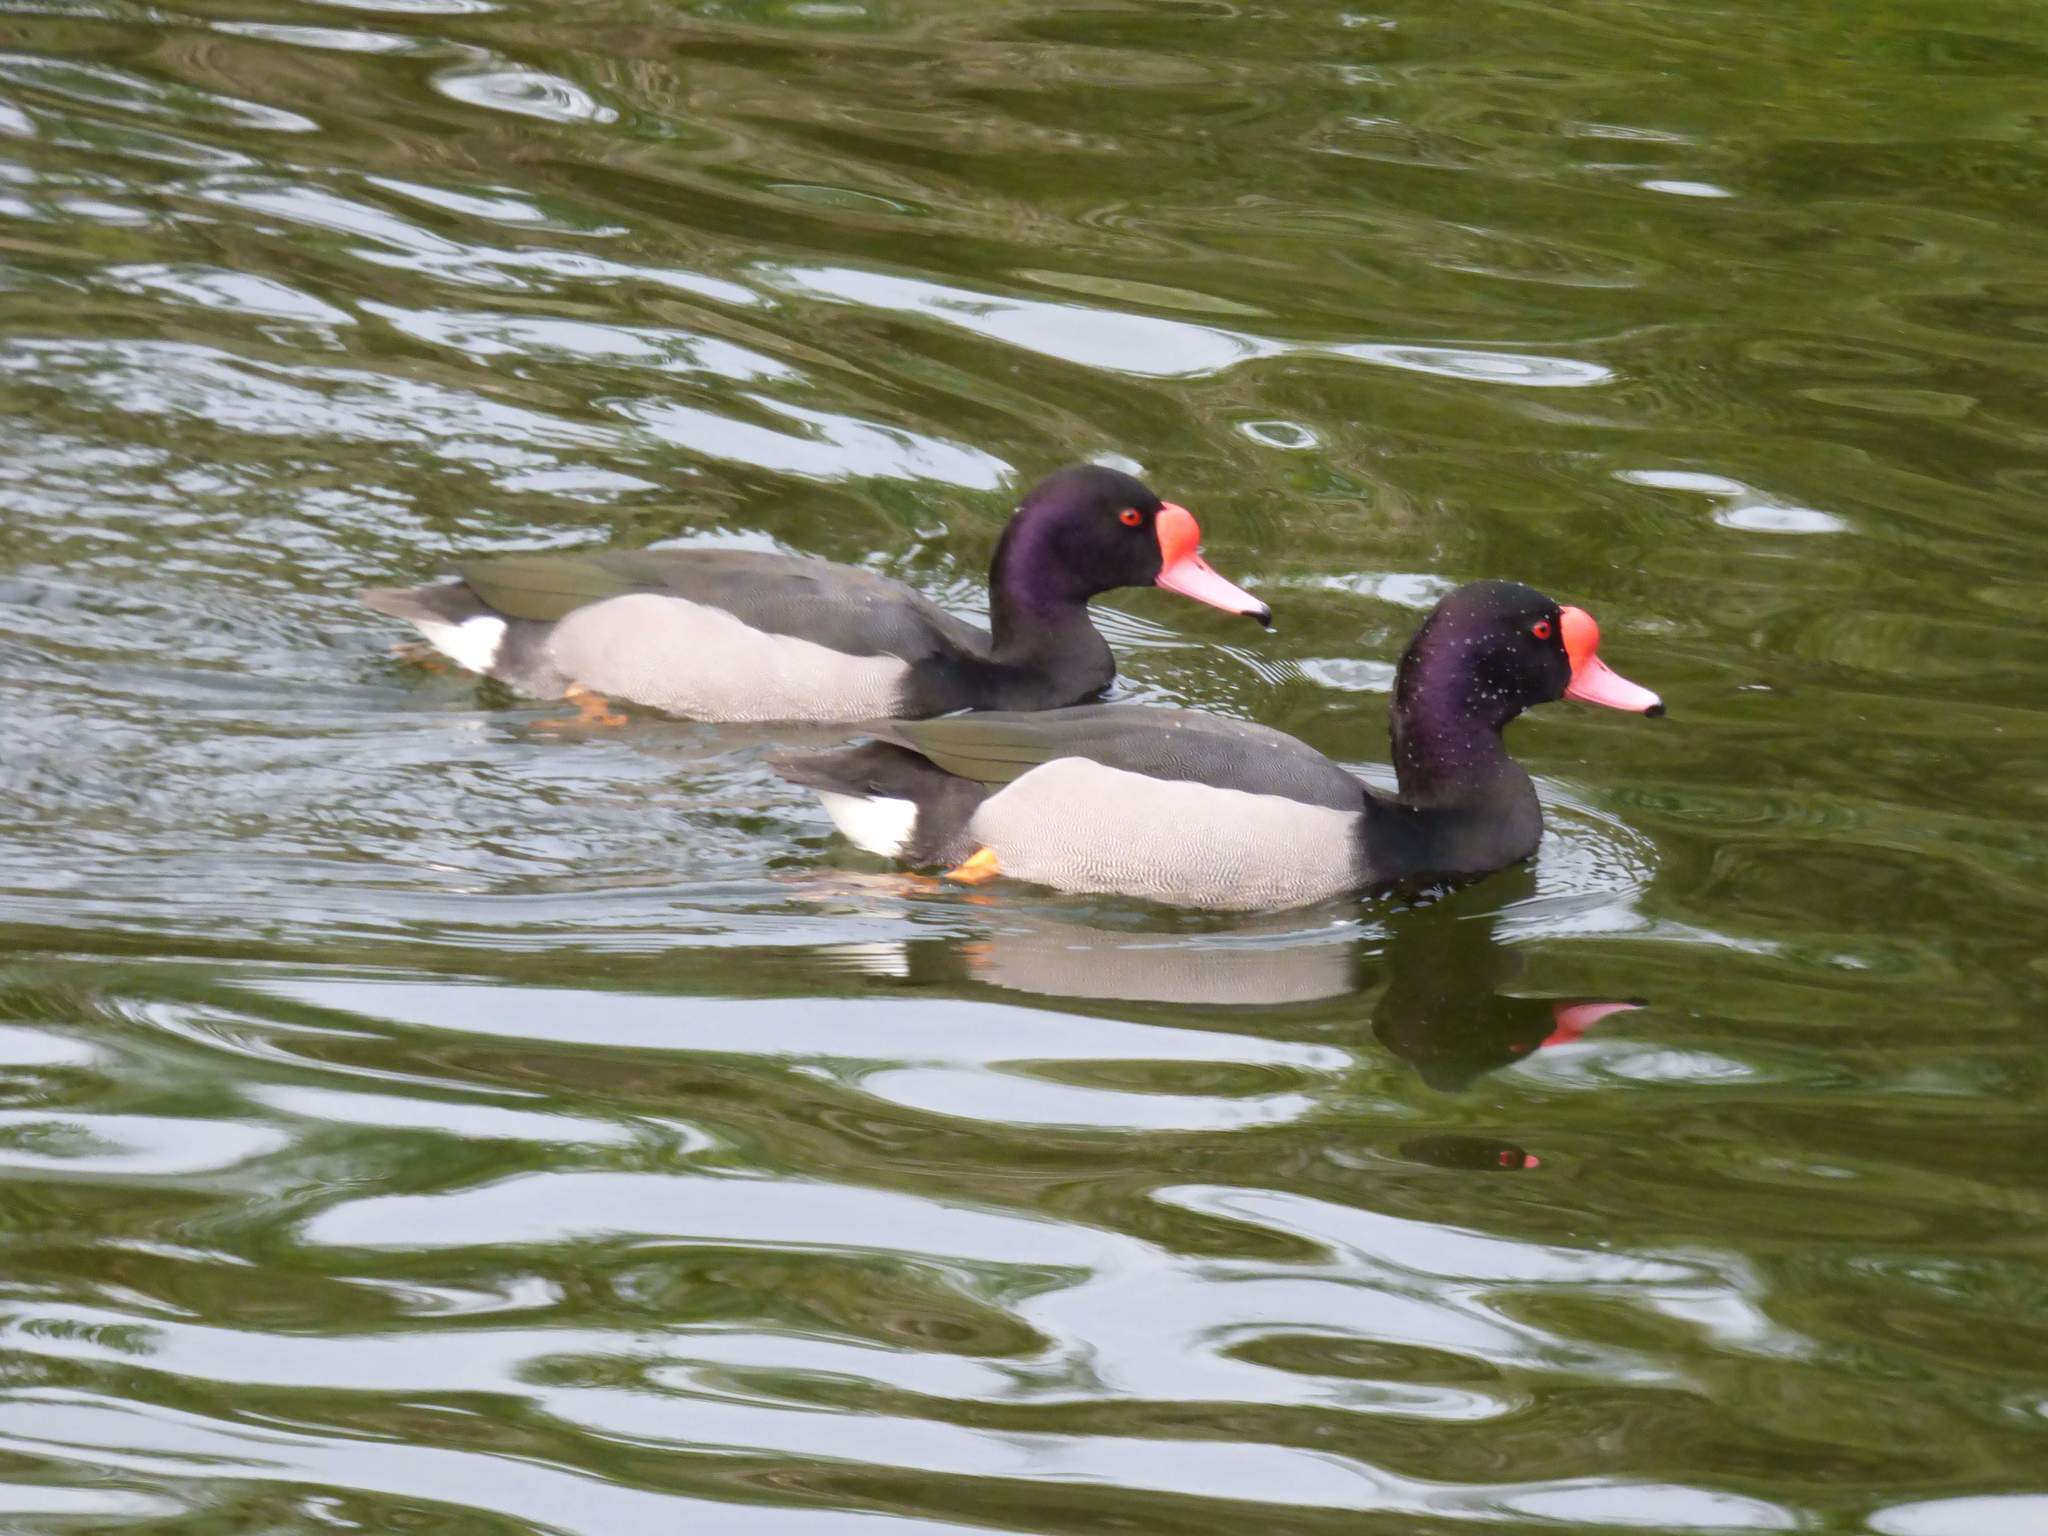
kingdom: Animalia
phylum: Chordata
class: Aves
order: Anseriformes
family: Anatidae
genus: Netta
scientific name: Netta peposaca
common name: Rosy-billed pochard
